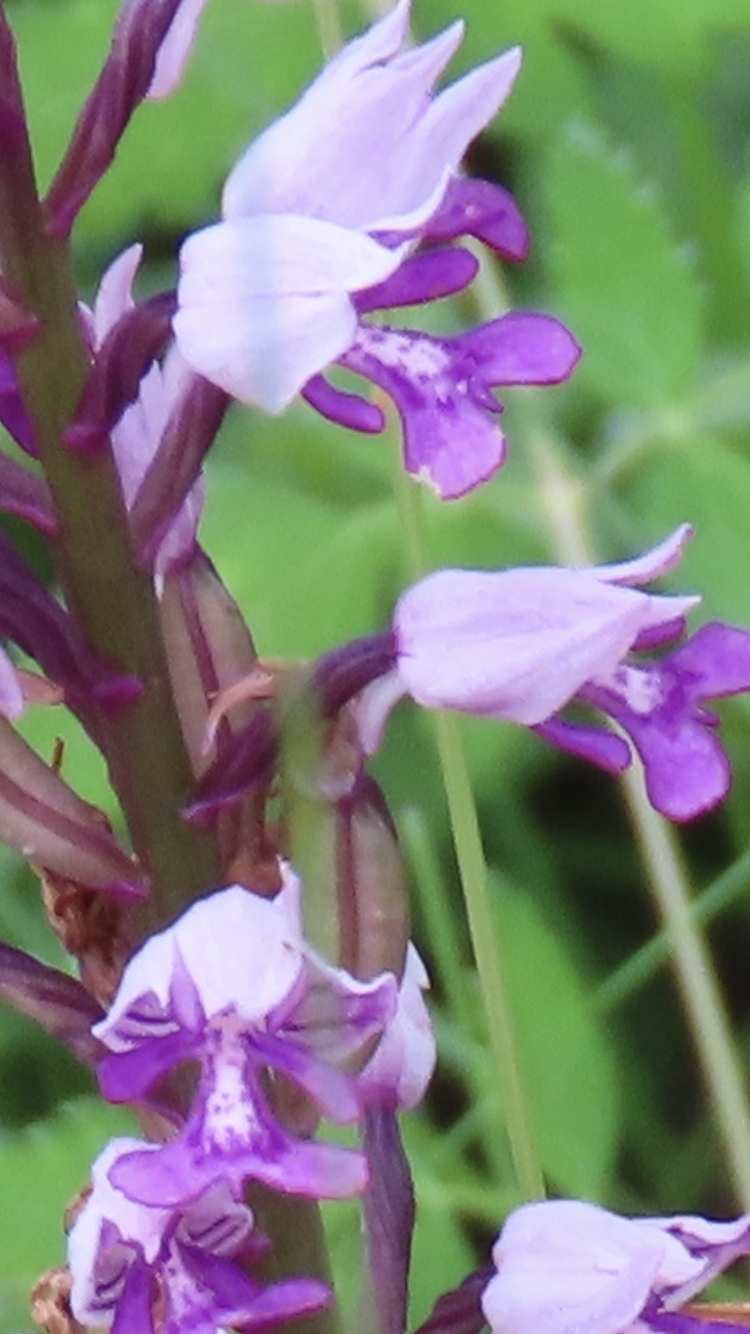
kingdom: Plantae
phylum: Tracheophyta
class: Liliopsida
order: Asparagales
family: Orchidaceae
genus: Orchis
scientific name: Orchis militaris
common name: Military orchid
